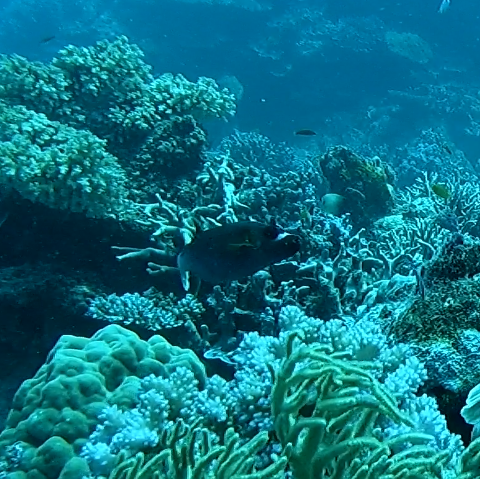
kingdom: Animalia
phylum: Chordata
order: Tetraodontiformes
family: Tetraodontidae
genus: Arothron
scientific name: Arothron nigropunctatus
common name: Black spotted blow fish
